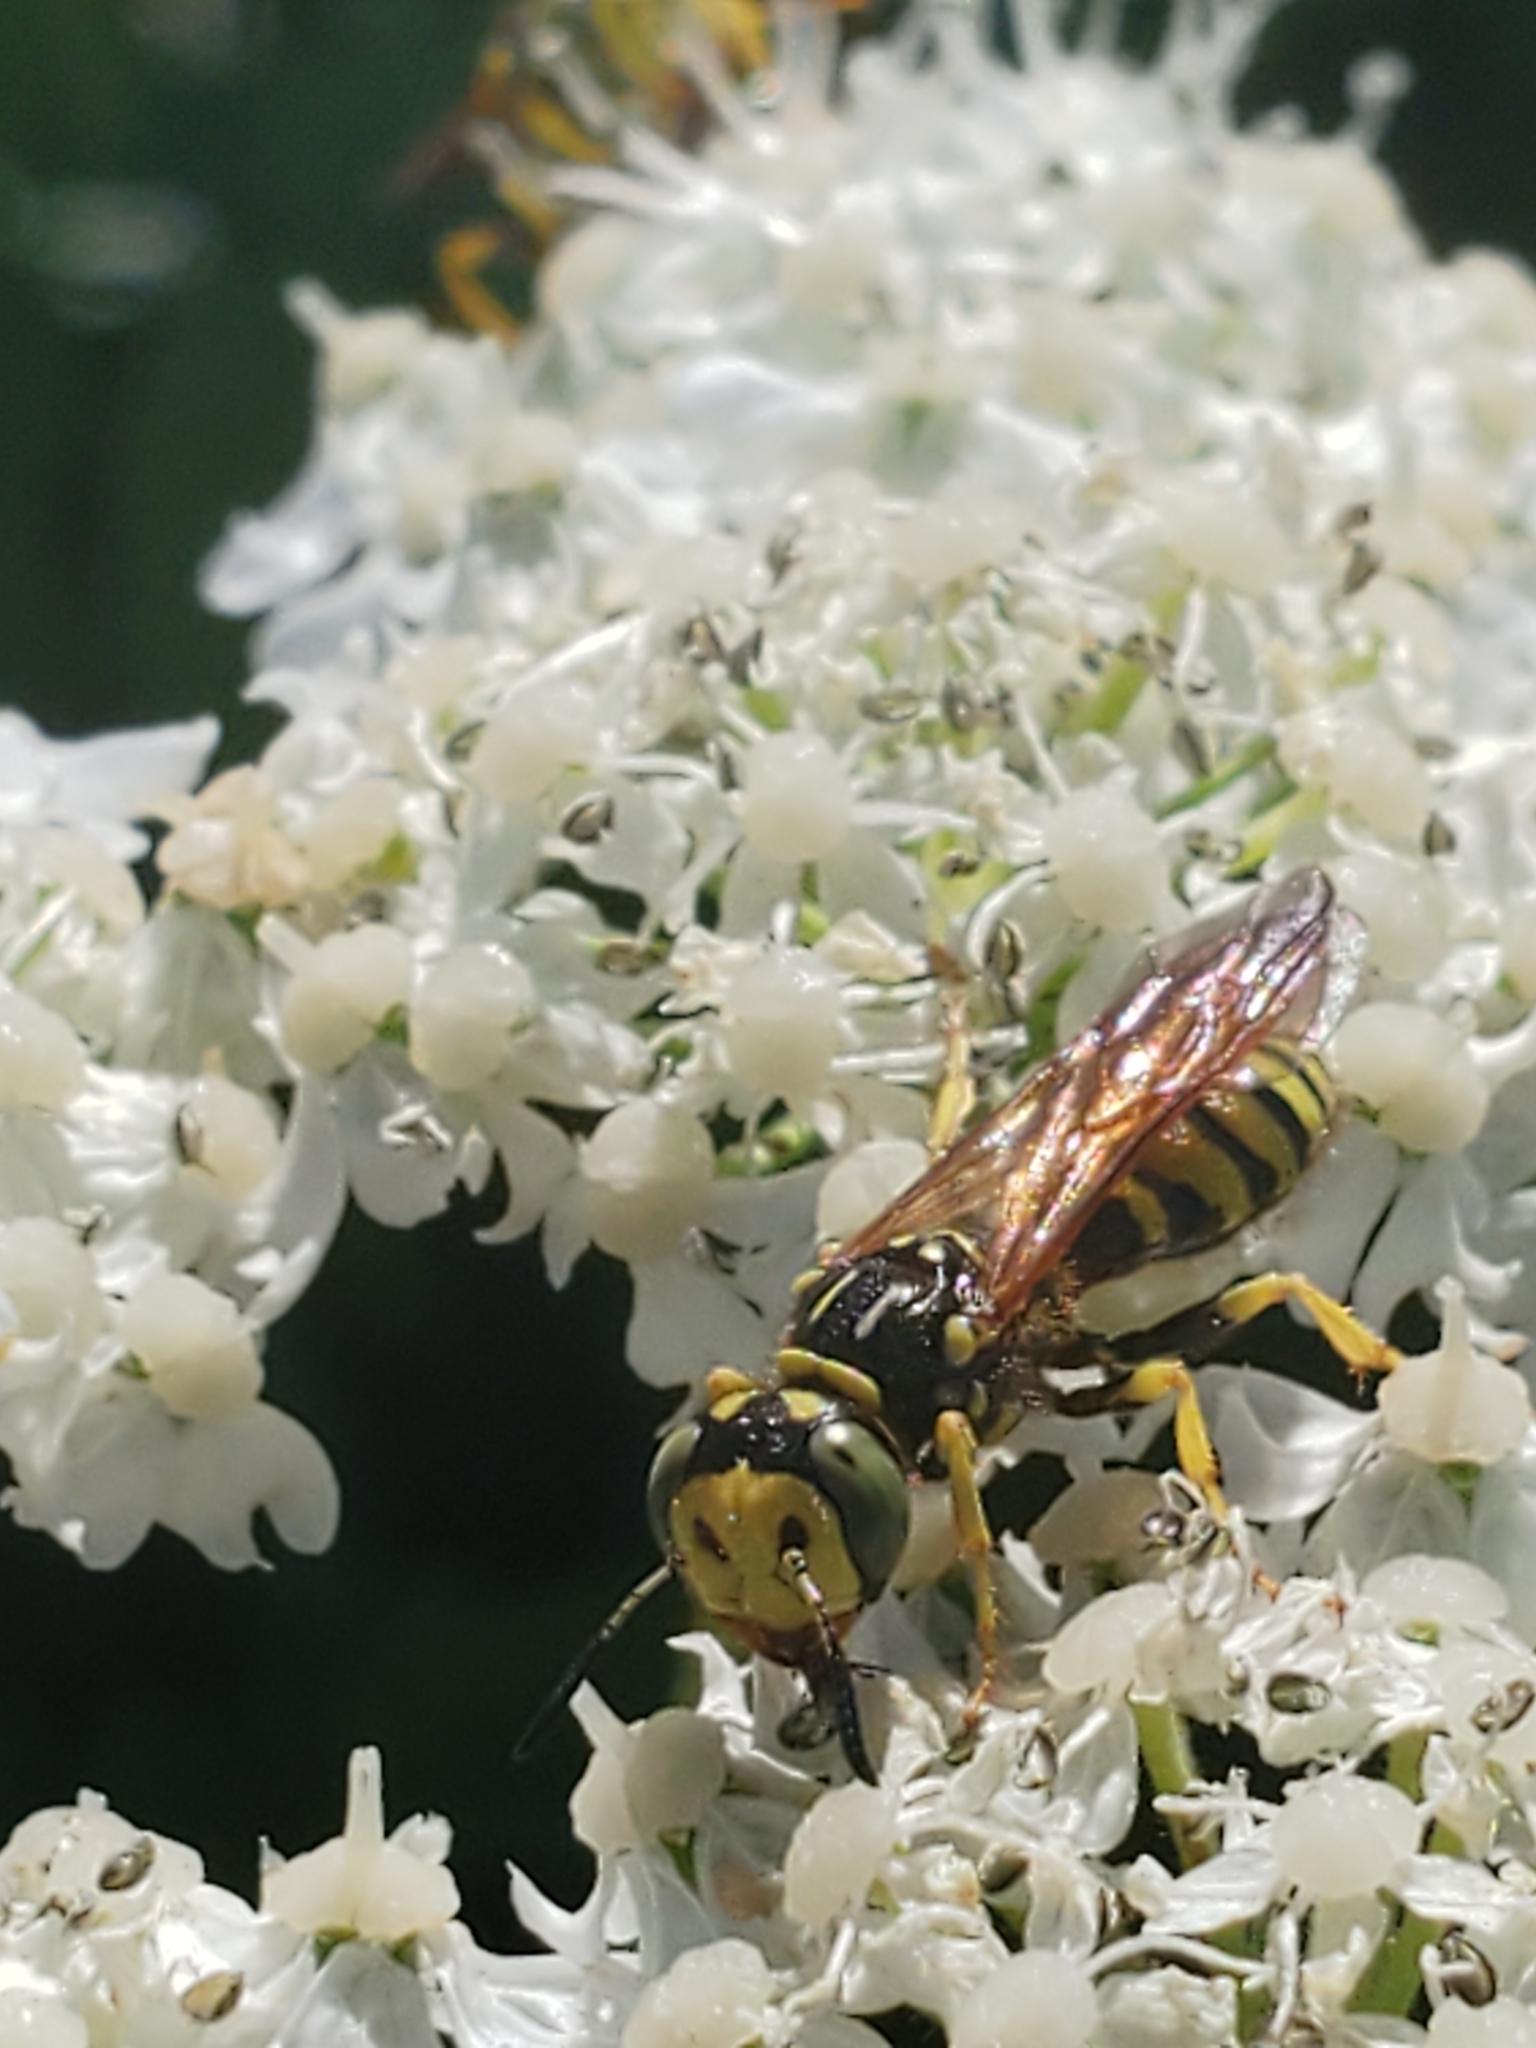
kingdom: Animalia
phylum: Arthropoda
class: Insecta
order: Hymenoptera
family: Crabronidae
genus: Philanthus
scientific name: Philanthus crabroniformis
